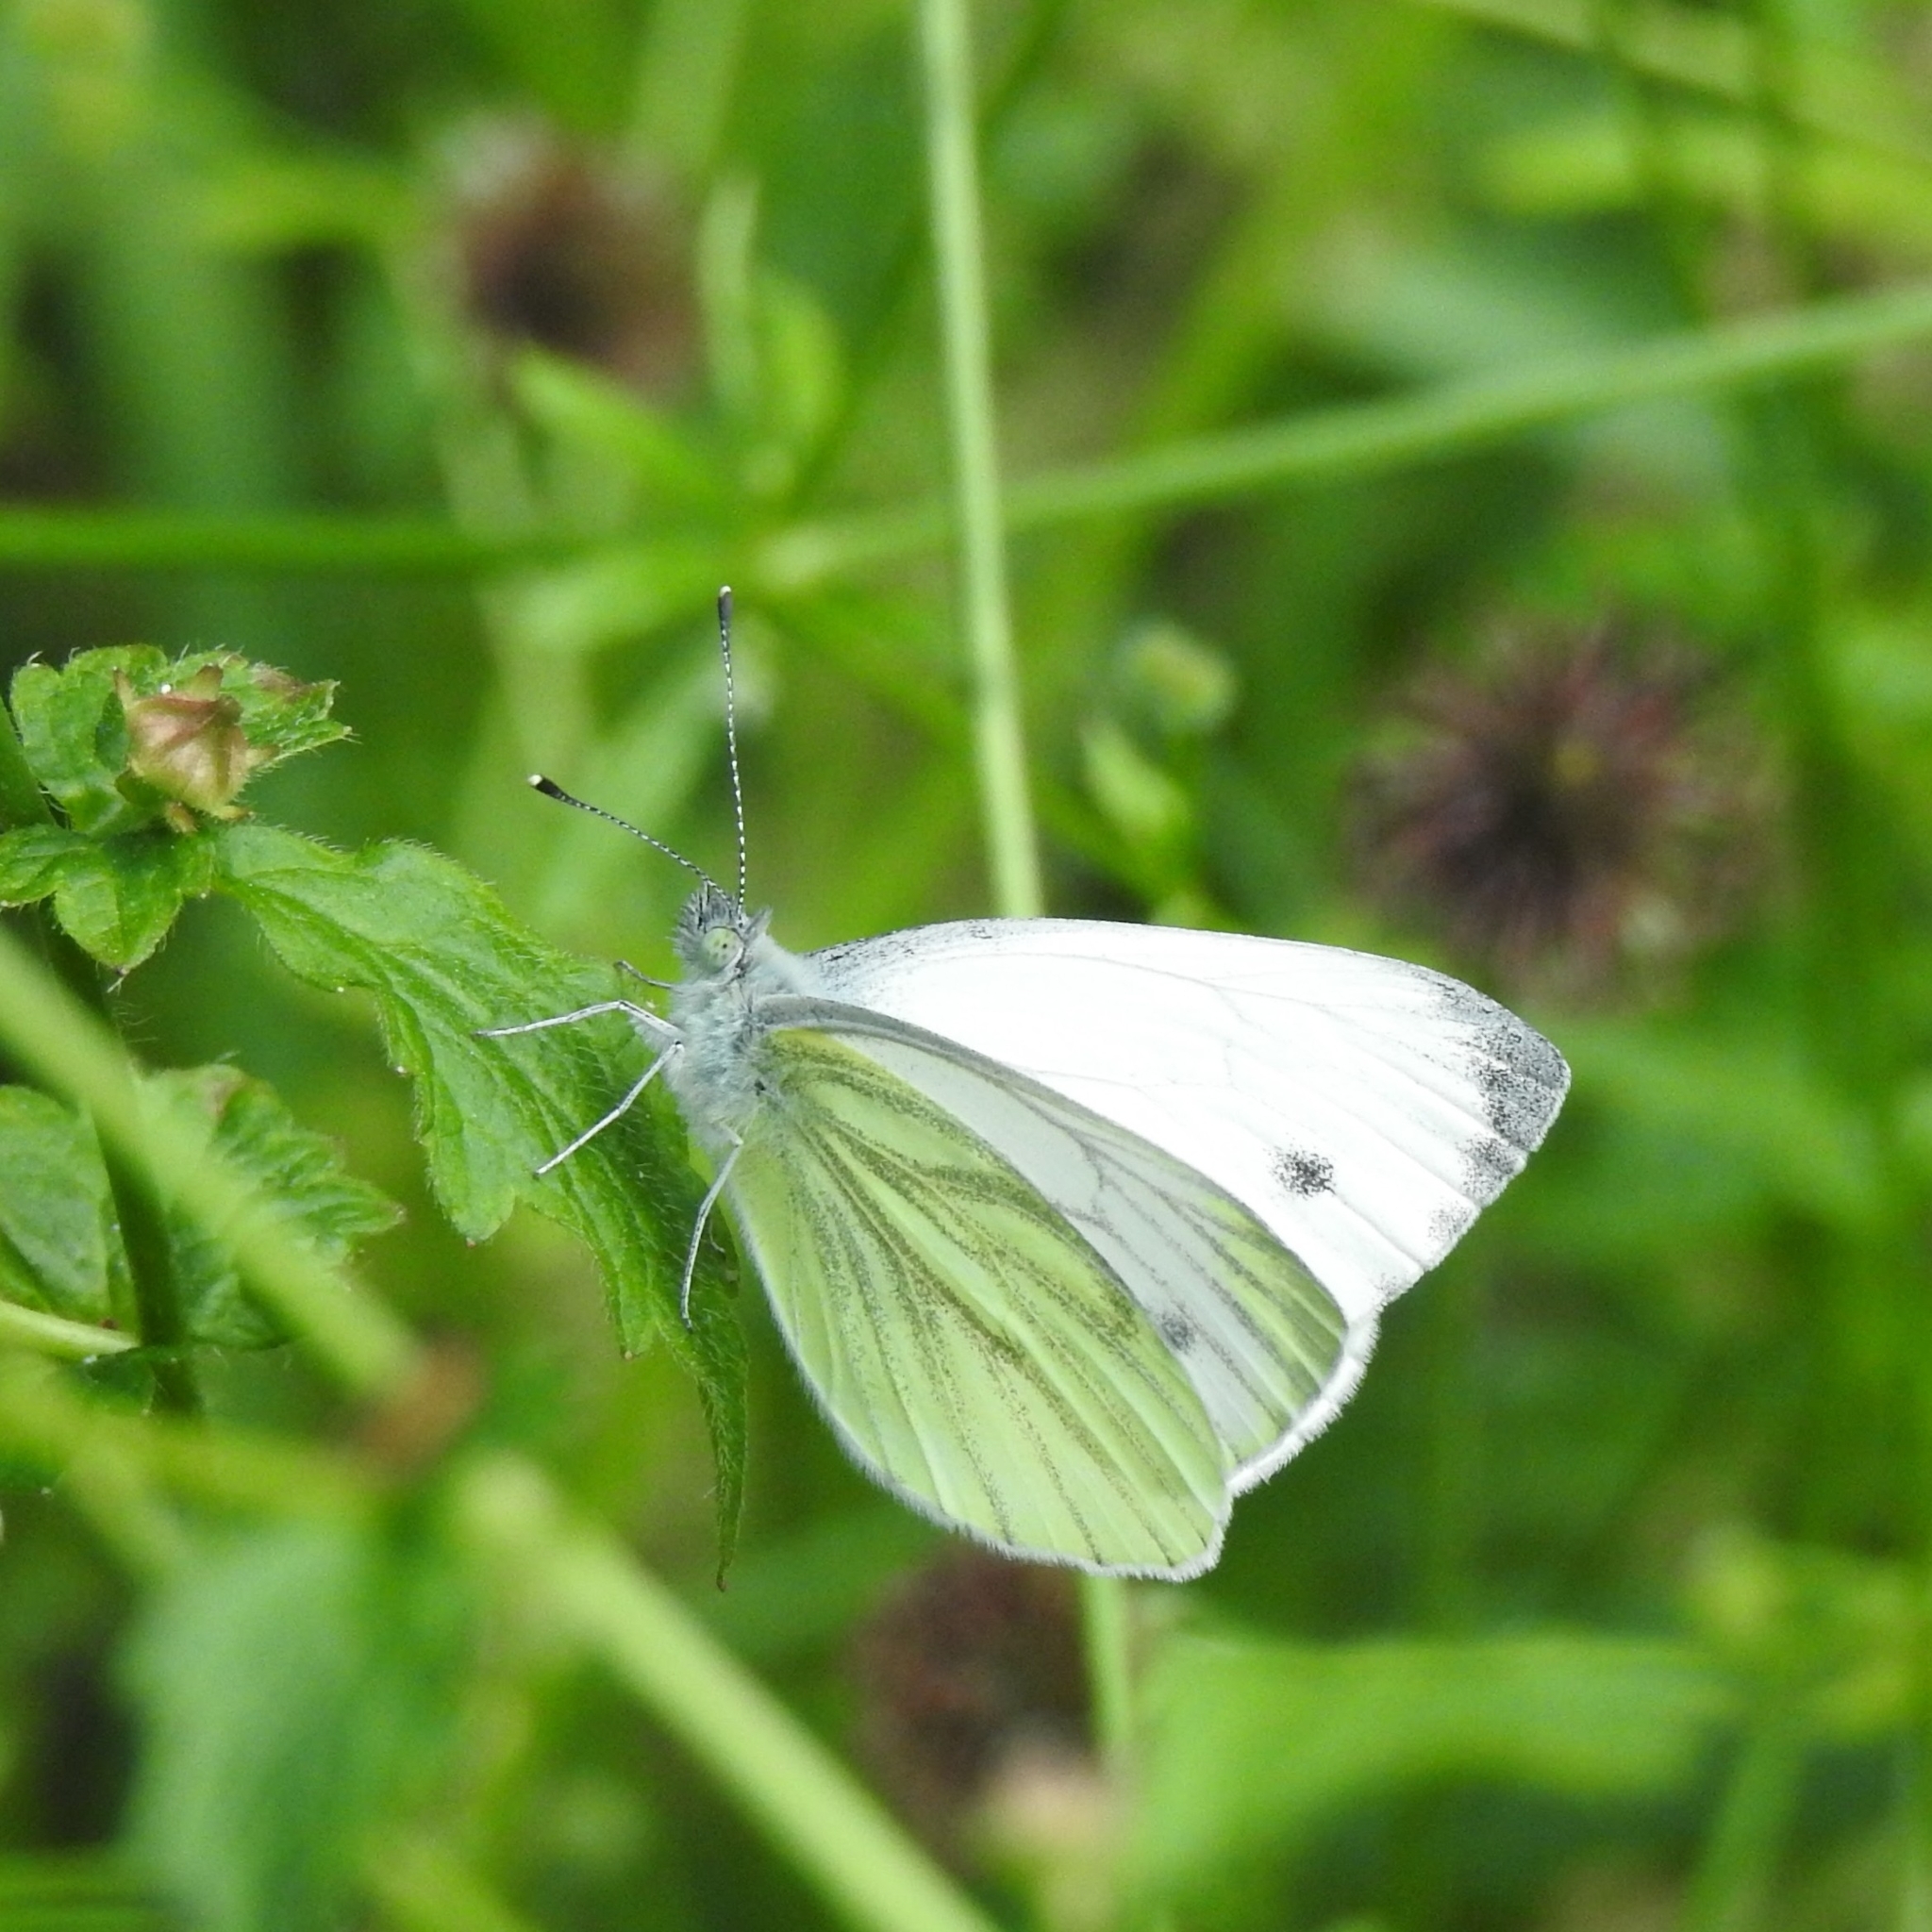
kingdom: Animalia
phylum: Arthropoda
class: Insecta
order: Lepidoptera
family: Pieridae
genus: Pieris
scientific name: Pieris napi
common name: Green-veined white
